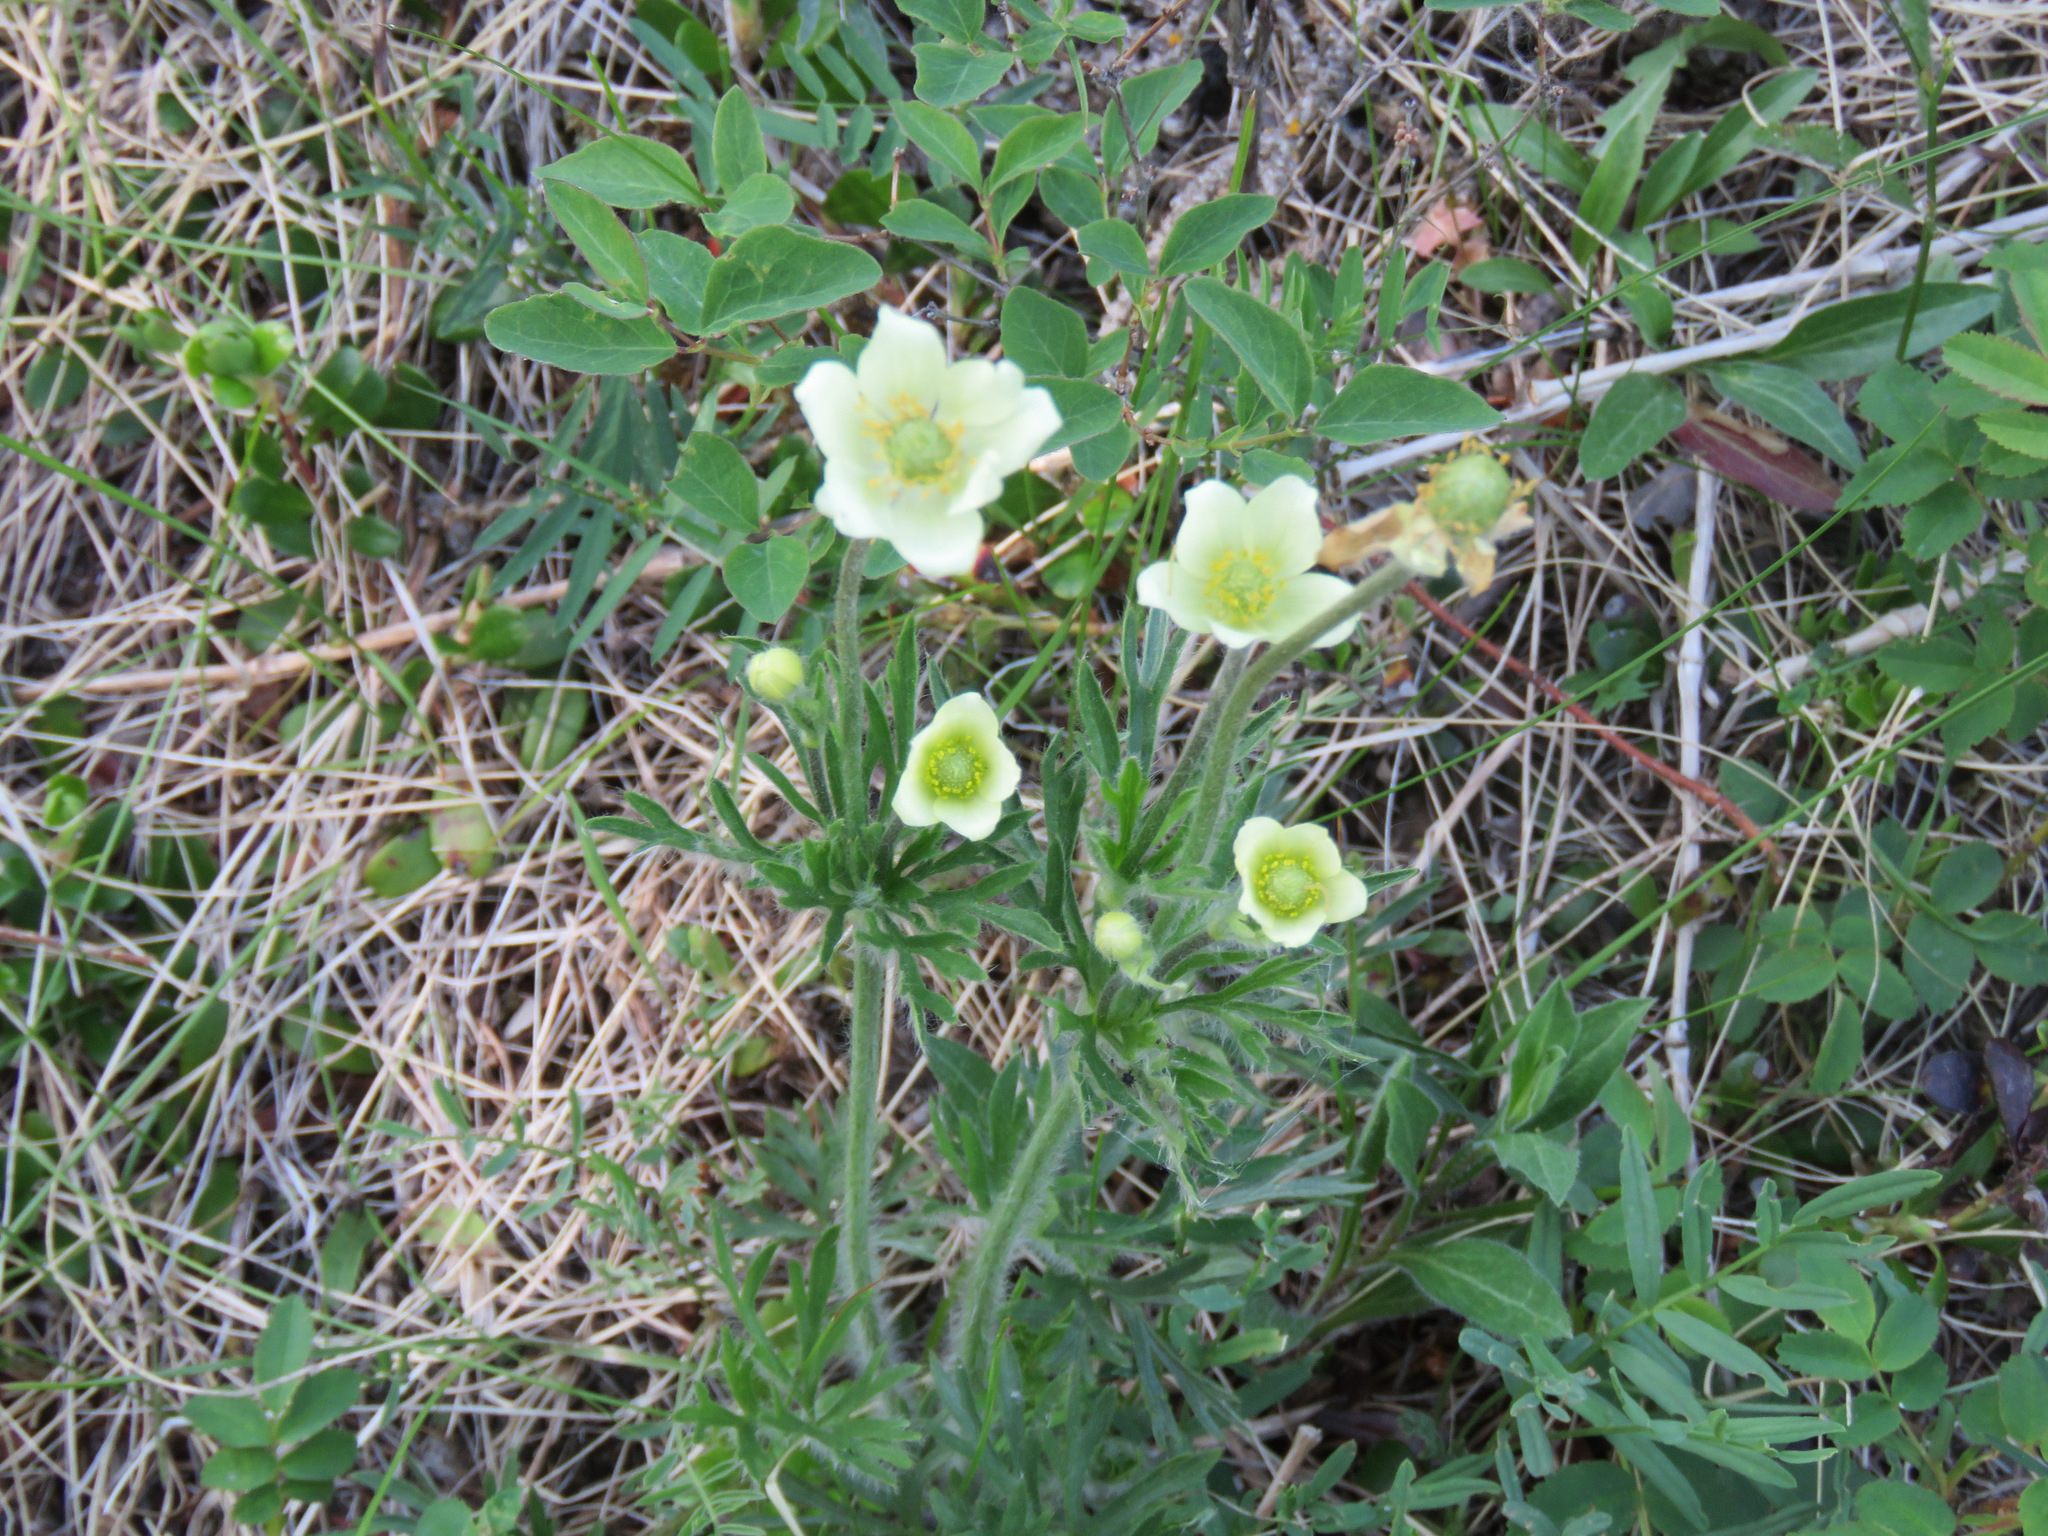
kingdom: Plantae
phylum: Tracheophyta
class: Magnoliopsida
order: Ranunculales
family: Ranunculaceae
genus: Anemone
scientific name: Anemone multifida
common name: Bird's-foot anemone
